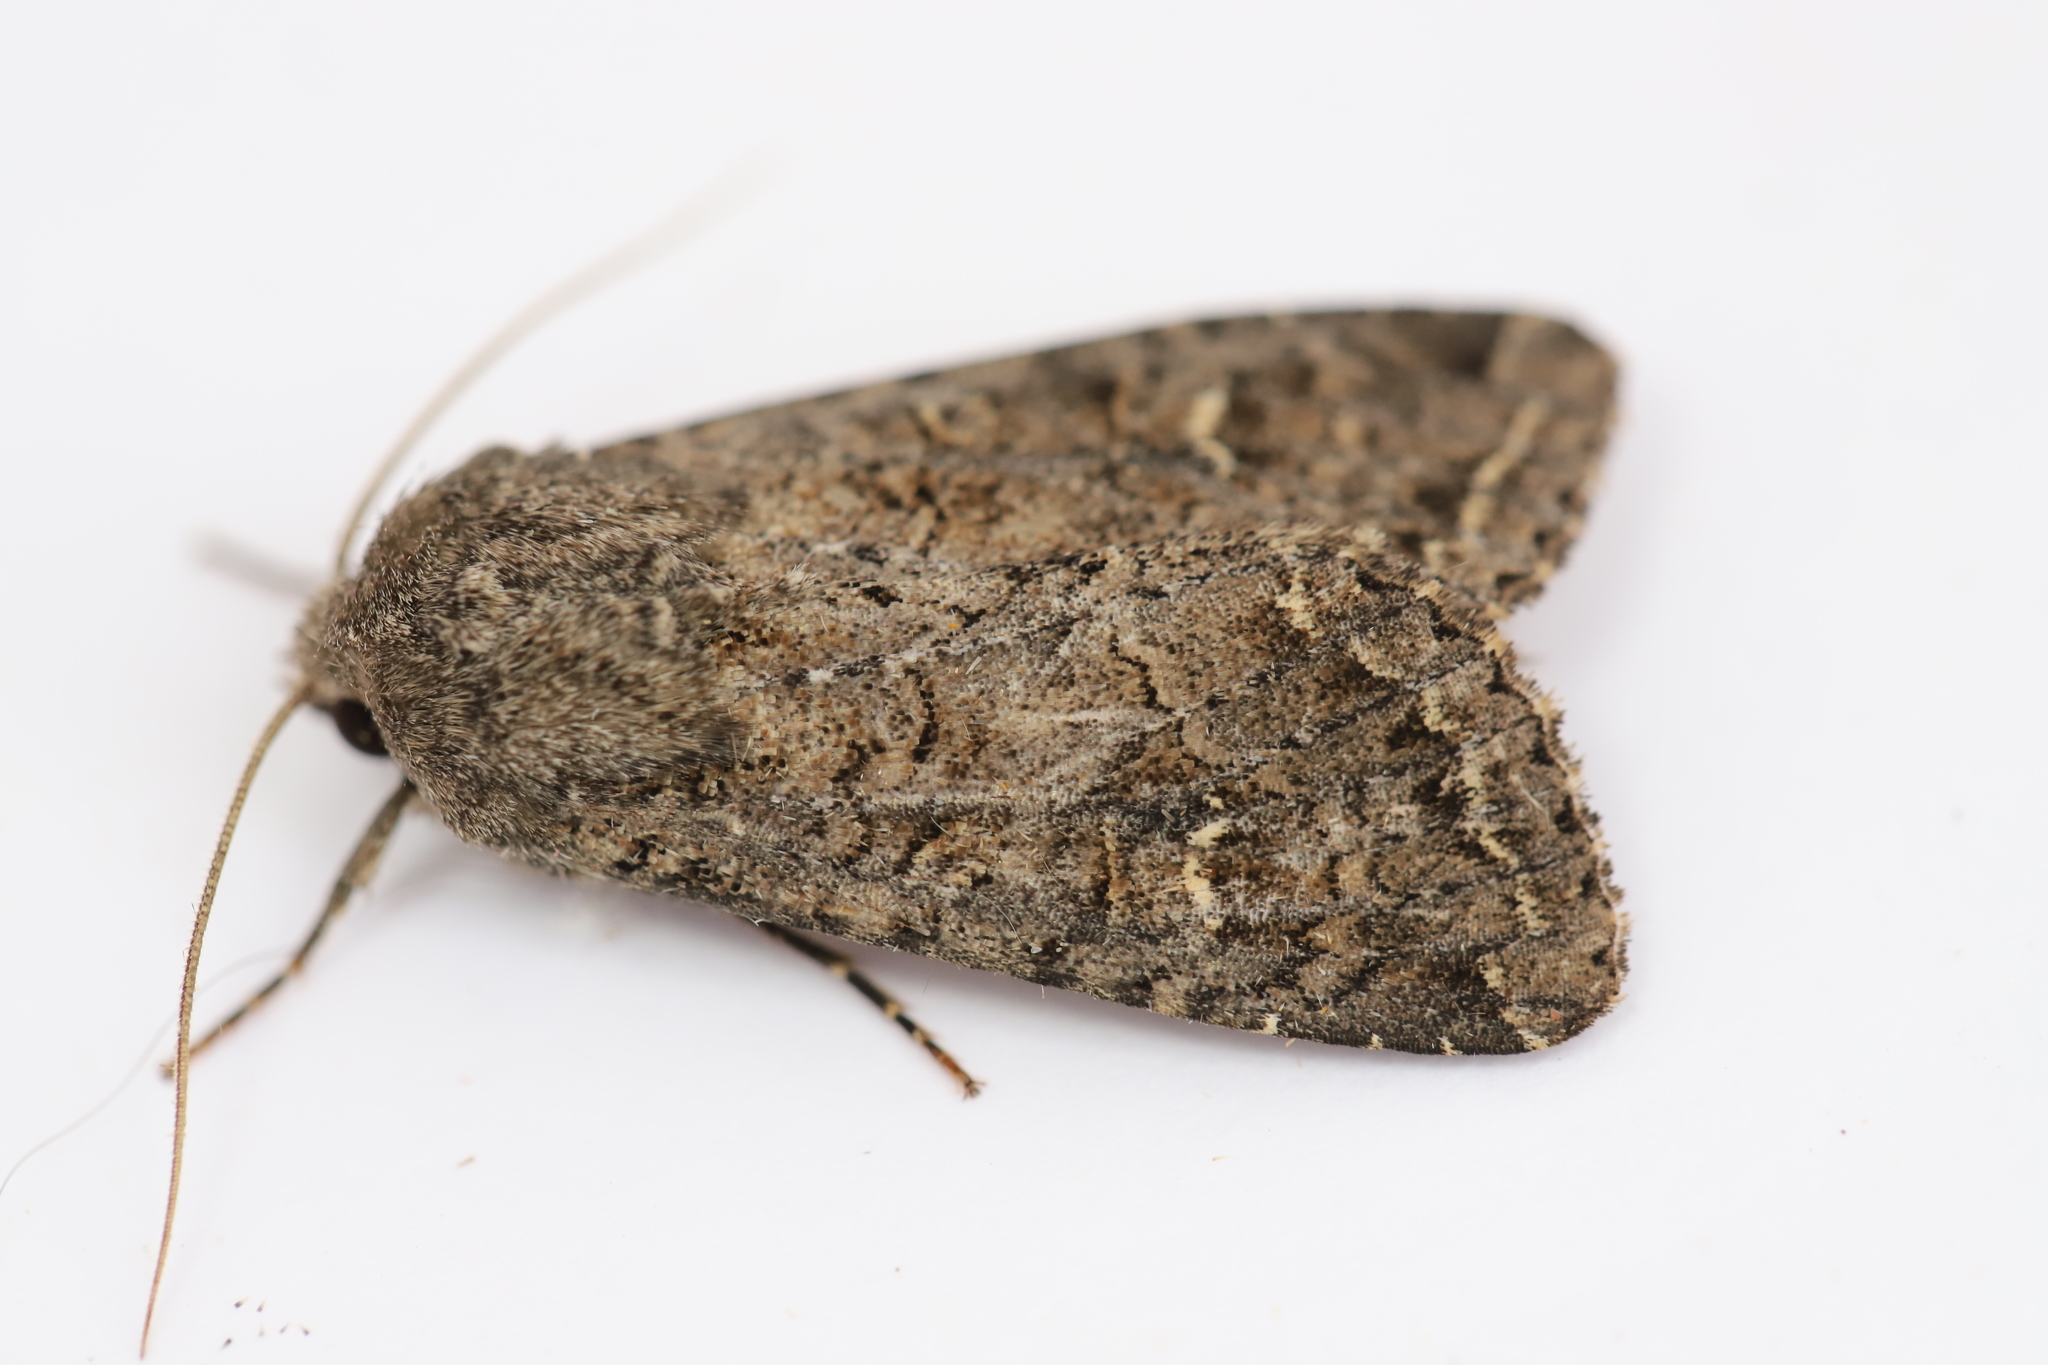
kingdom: Animalia
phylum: Arthropoda
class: Insecta
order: Lepidoptera
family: Noctuidae
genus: Apamea
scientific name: Apamea devastator
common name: Glassy cutworm
